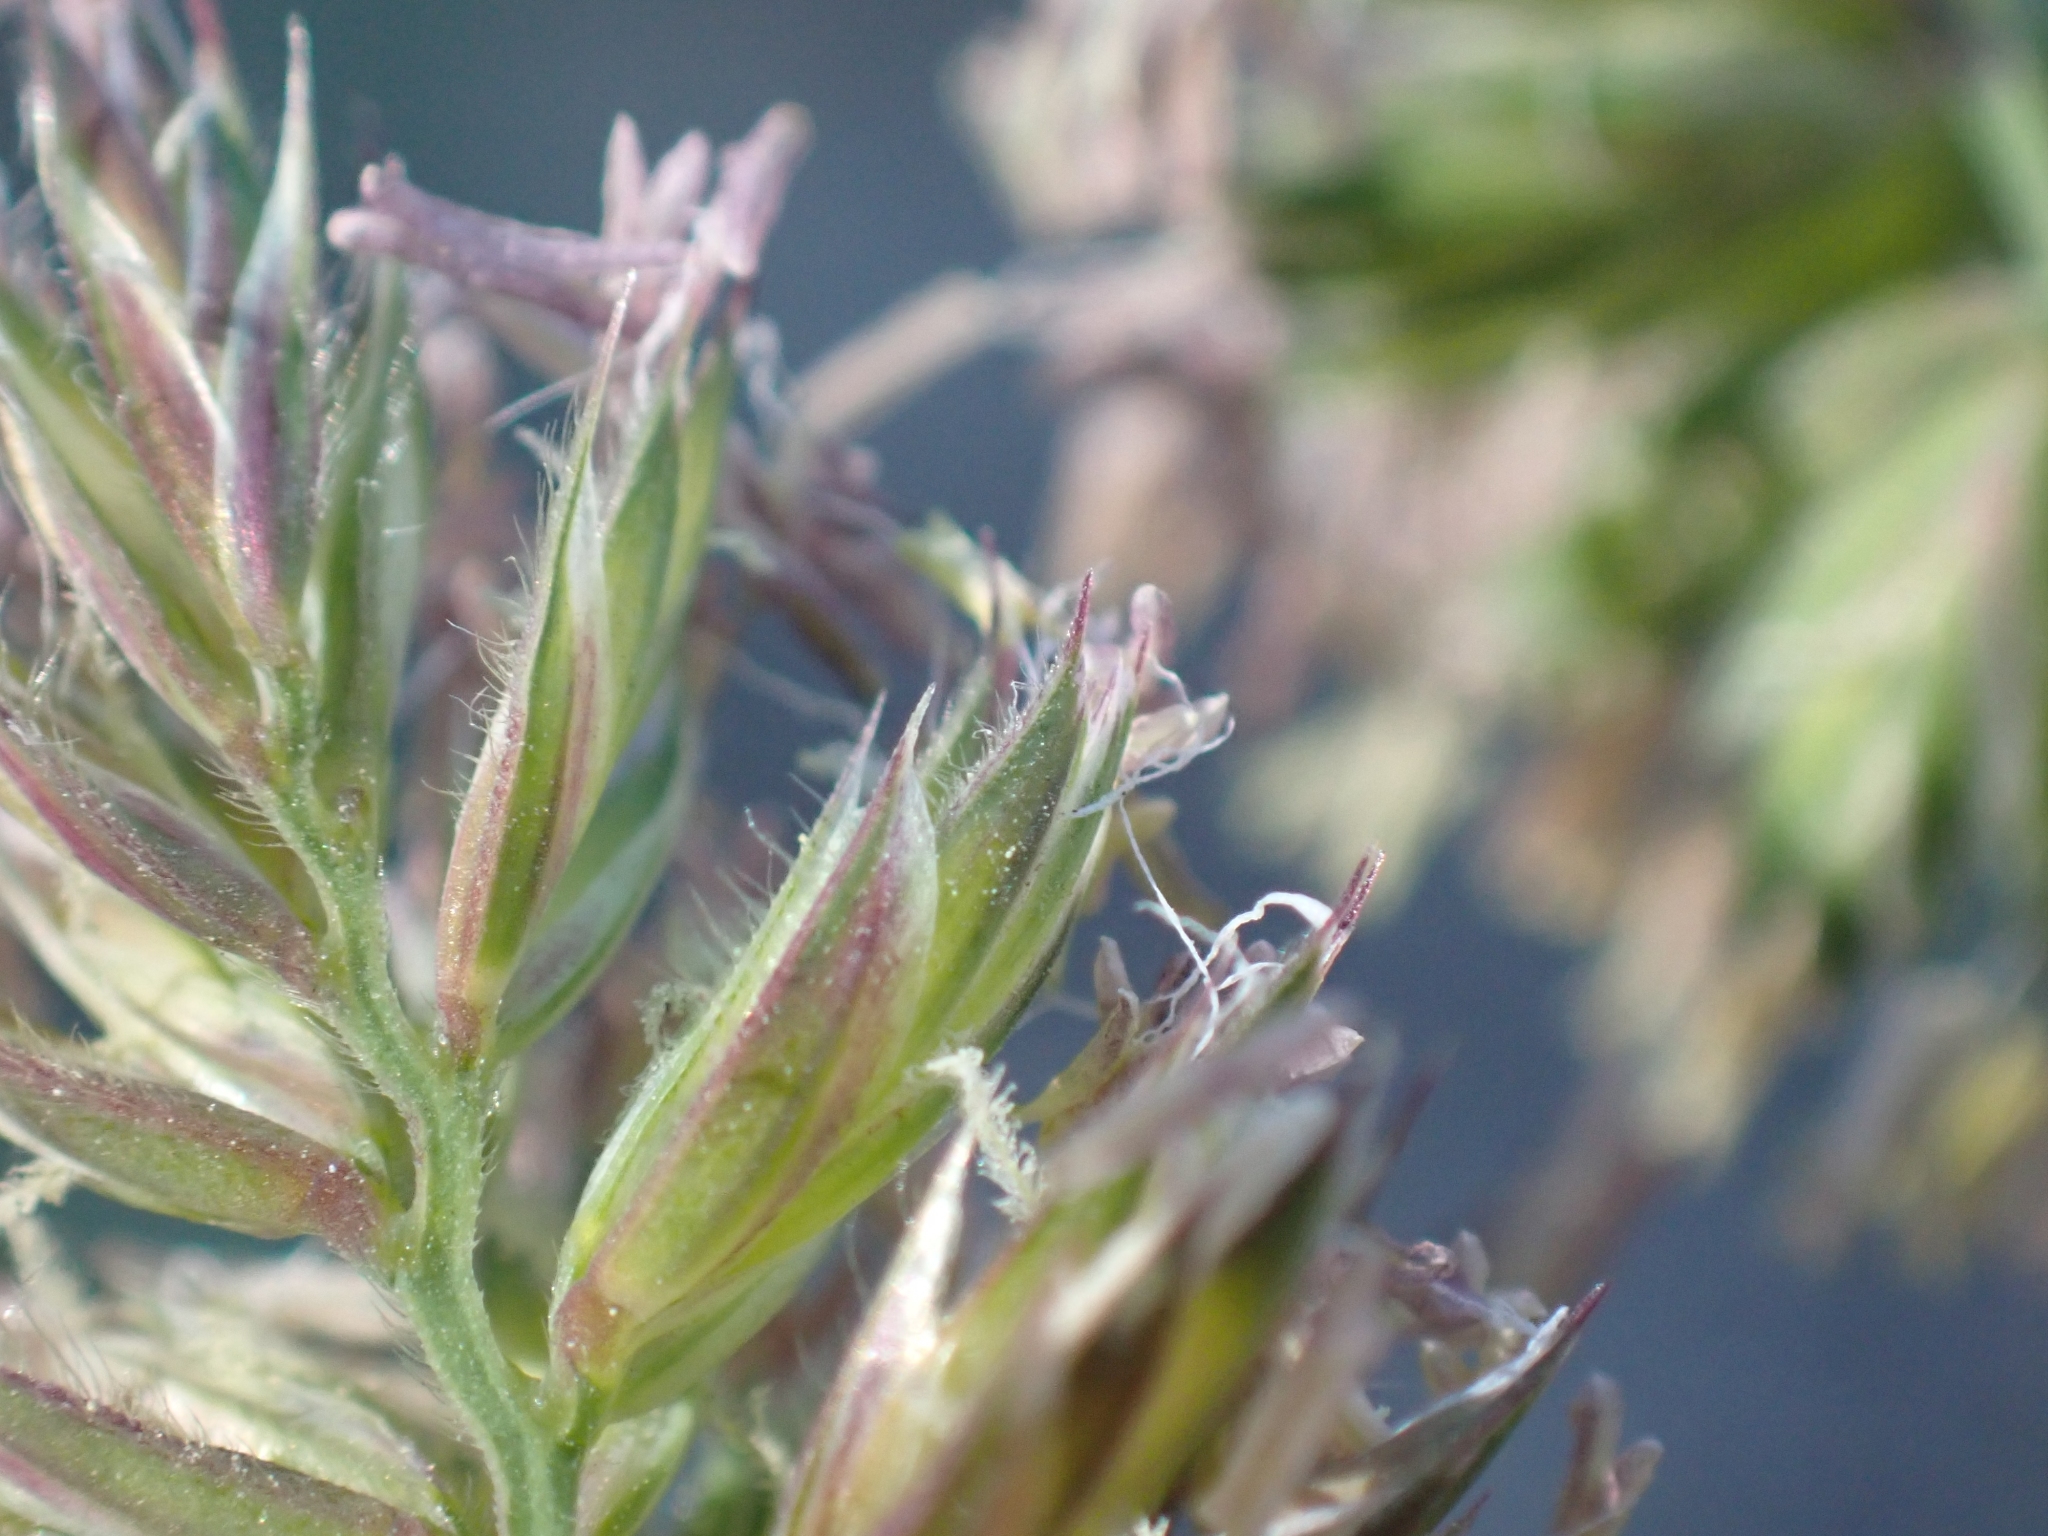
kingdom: Plantae
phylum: Tracheophyta
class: Liliopsida
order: Poales
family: Poaceae
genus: Dactylis
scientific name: Dactylis glomerata
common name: Orchardgrass
